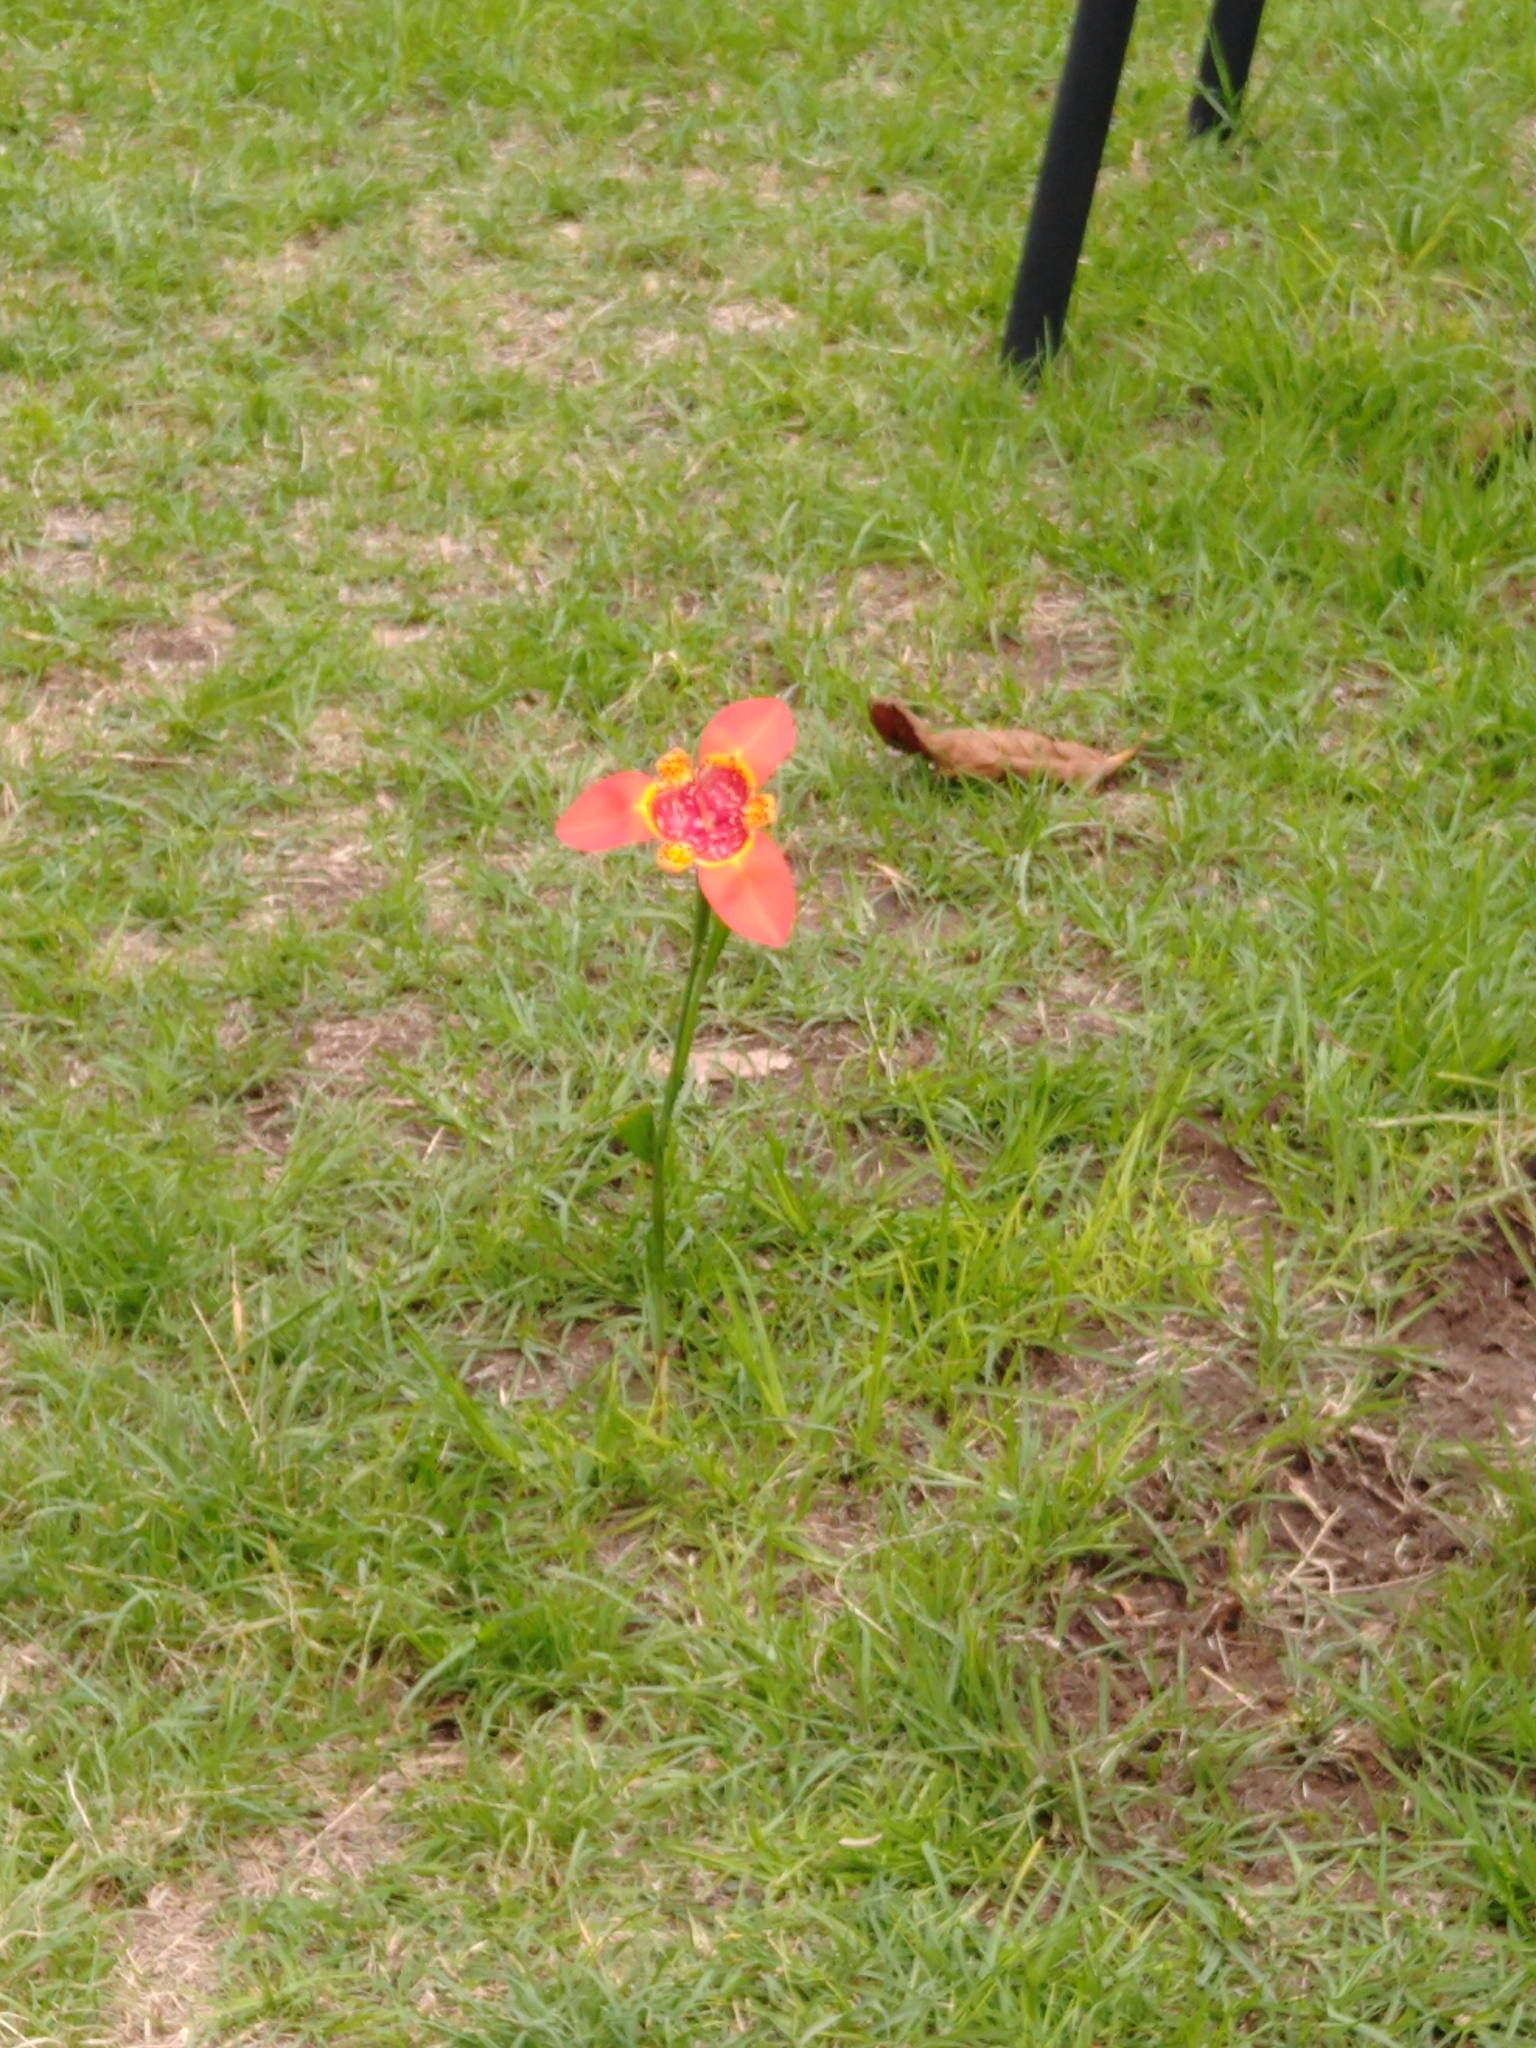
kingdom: Plantae
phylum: Tracheophyta
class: Liliopsida
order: Asparagales
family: Iridaceae
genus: Tigridia
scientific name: Tigridia pavonia
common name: Peacock-flower
